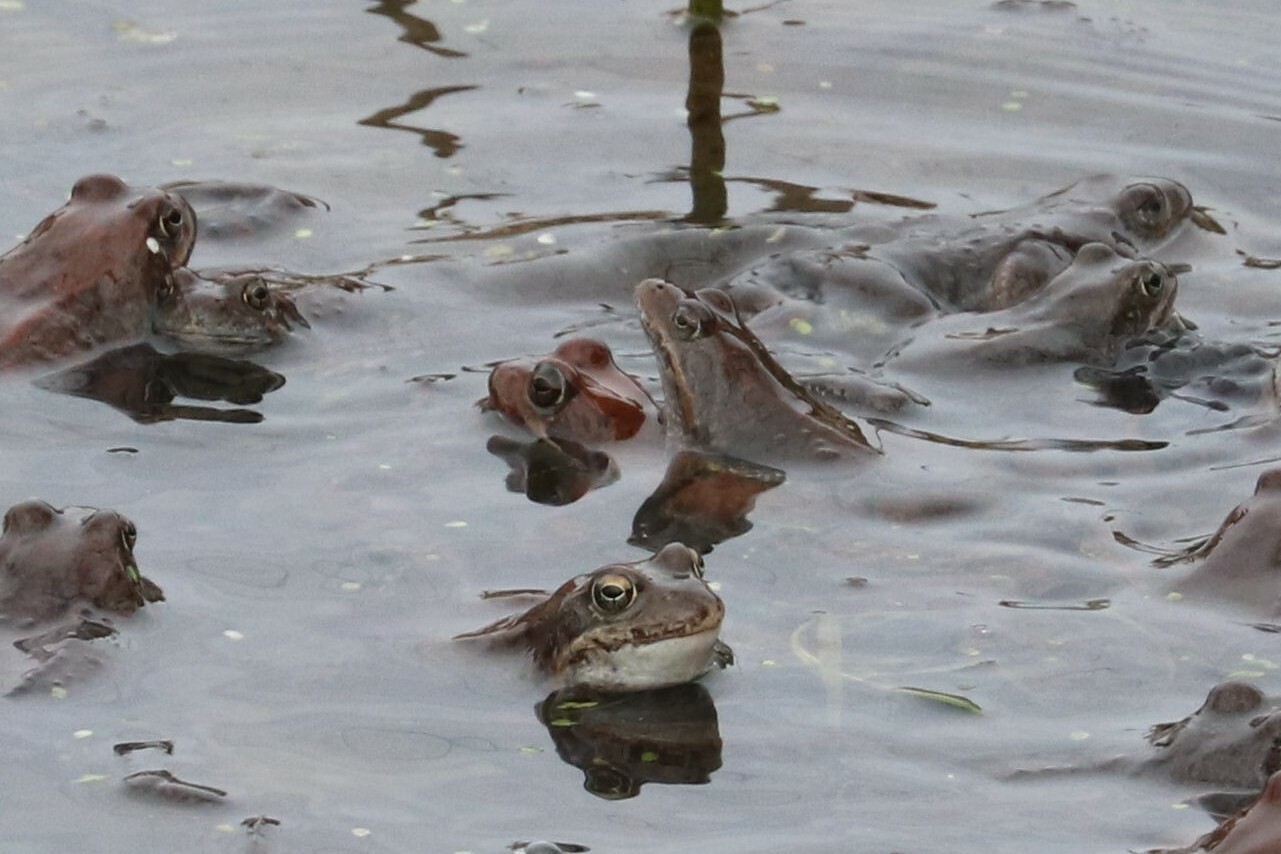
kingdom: Animalia
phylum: Chordata
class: Amphibia
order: Anura
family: Ranidae
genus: Rana
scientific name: Rana temporaria
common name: Common frog
